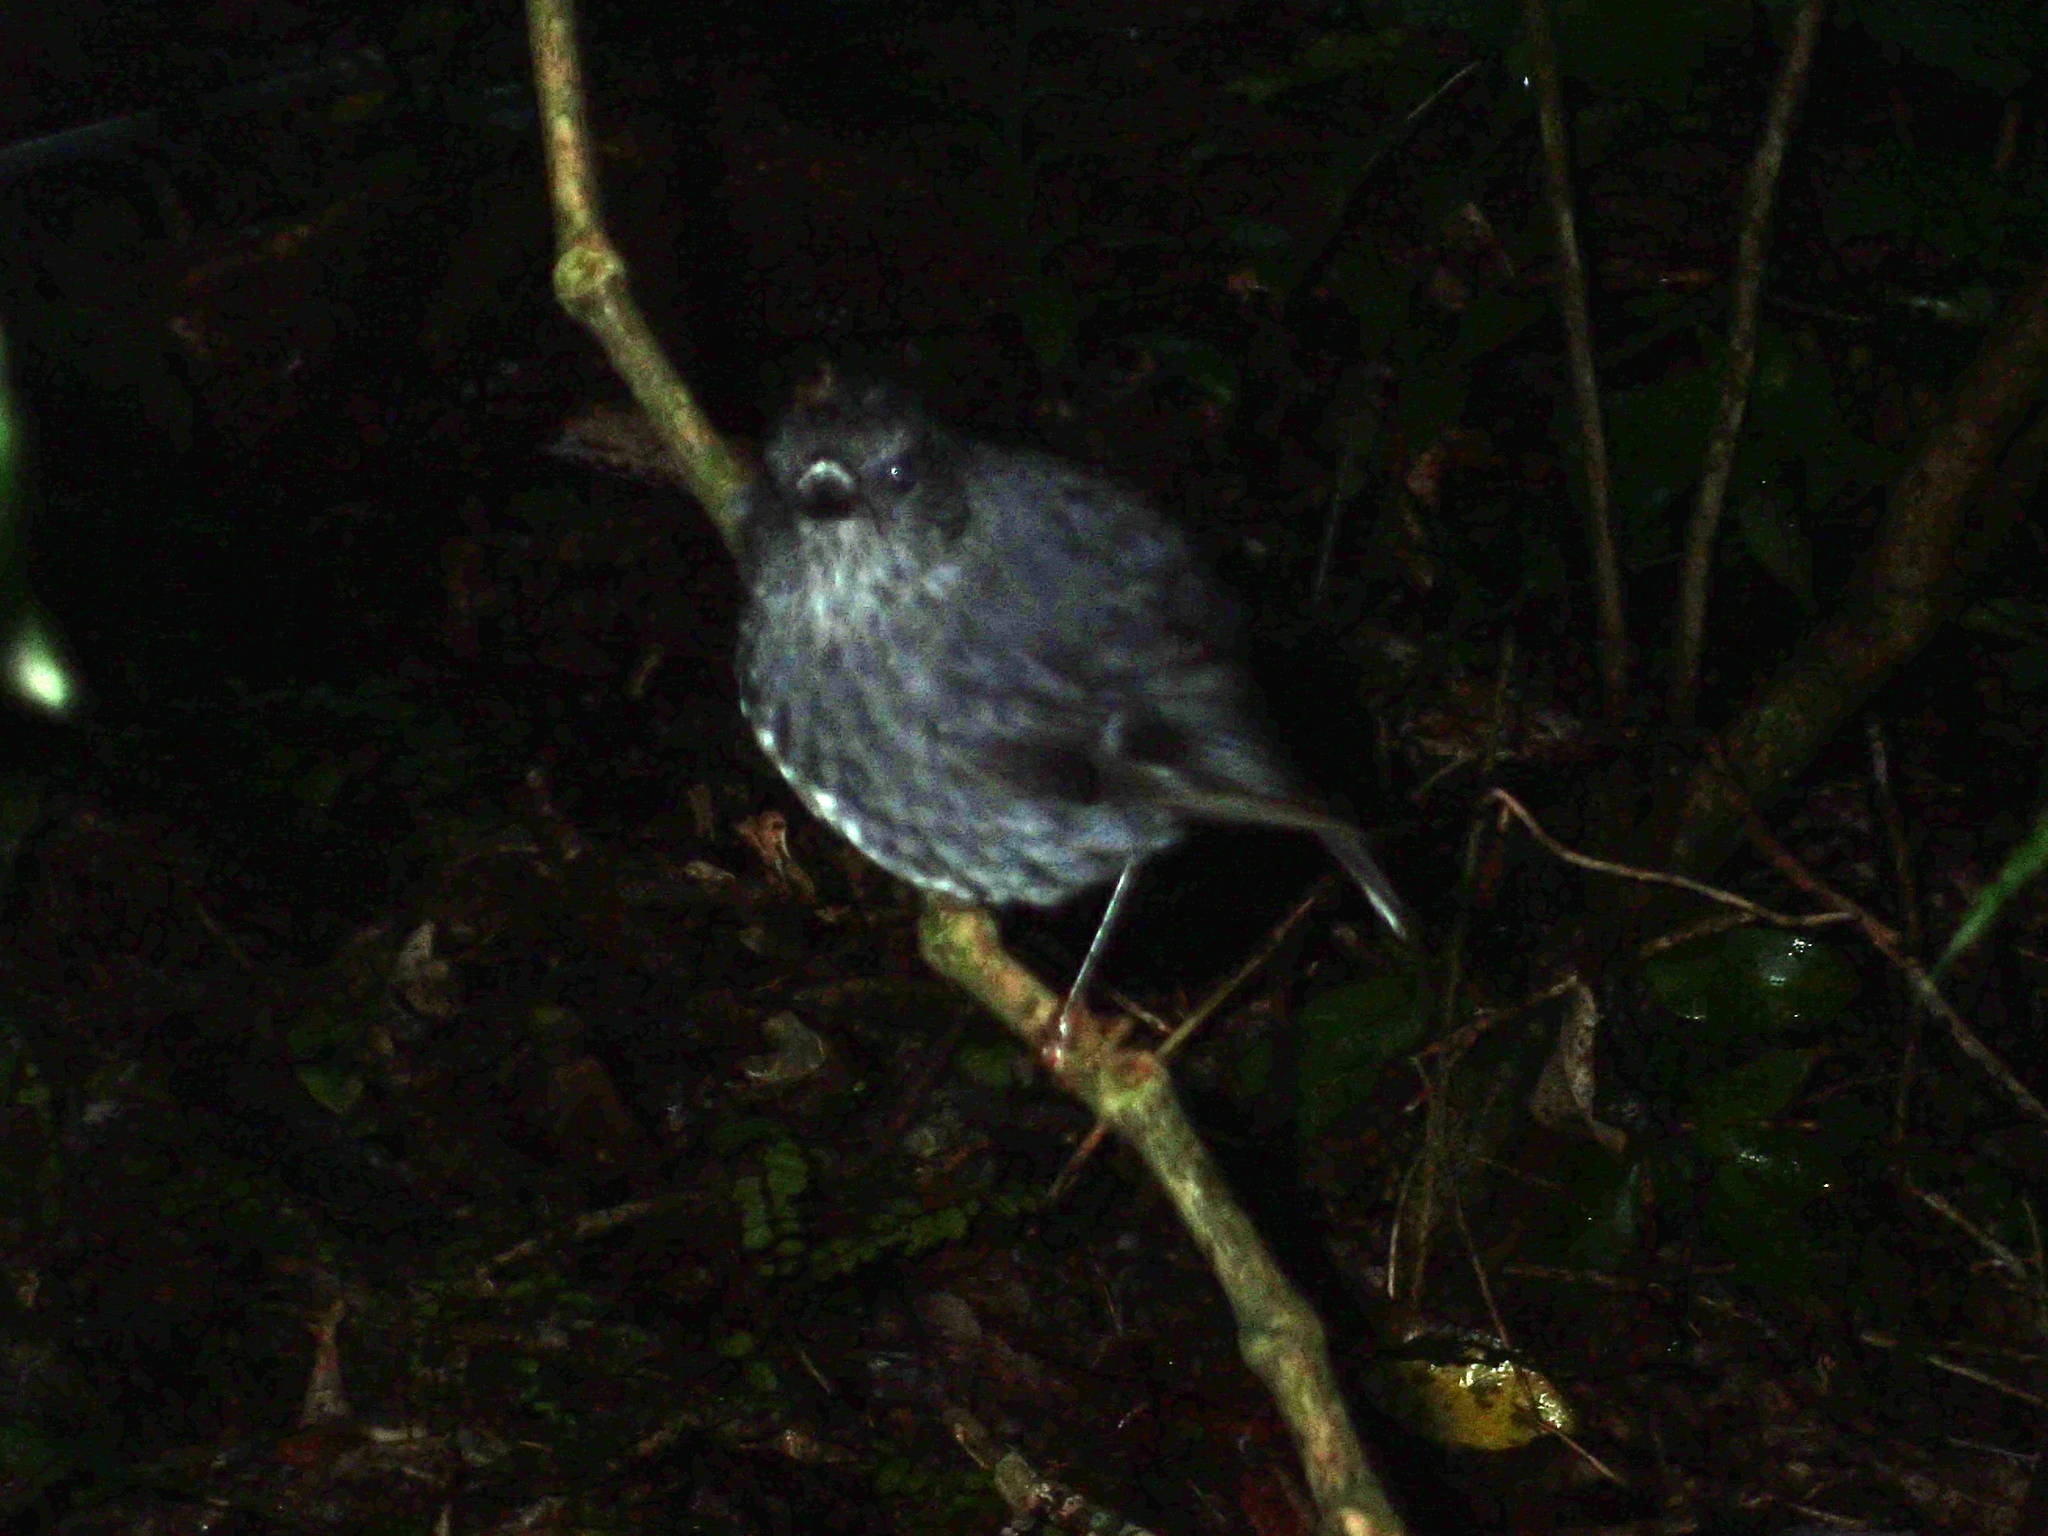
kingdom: Animalia
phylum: Chordata
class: Aves
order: Passeriformes
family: Petroicidae
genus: Petroica
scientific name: Petroica australis
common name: New zealand robin
